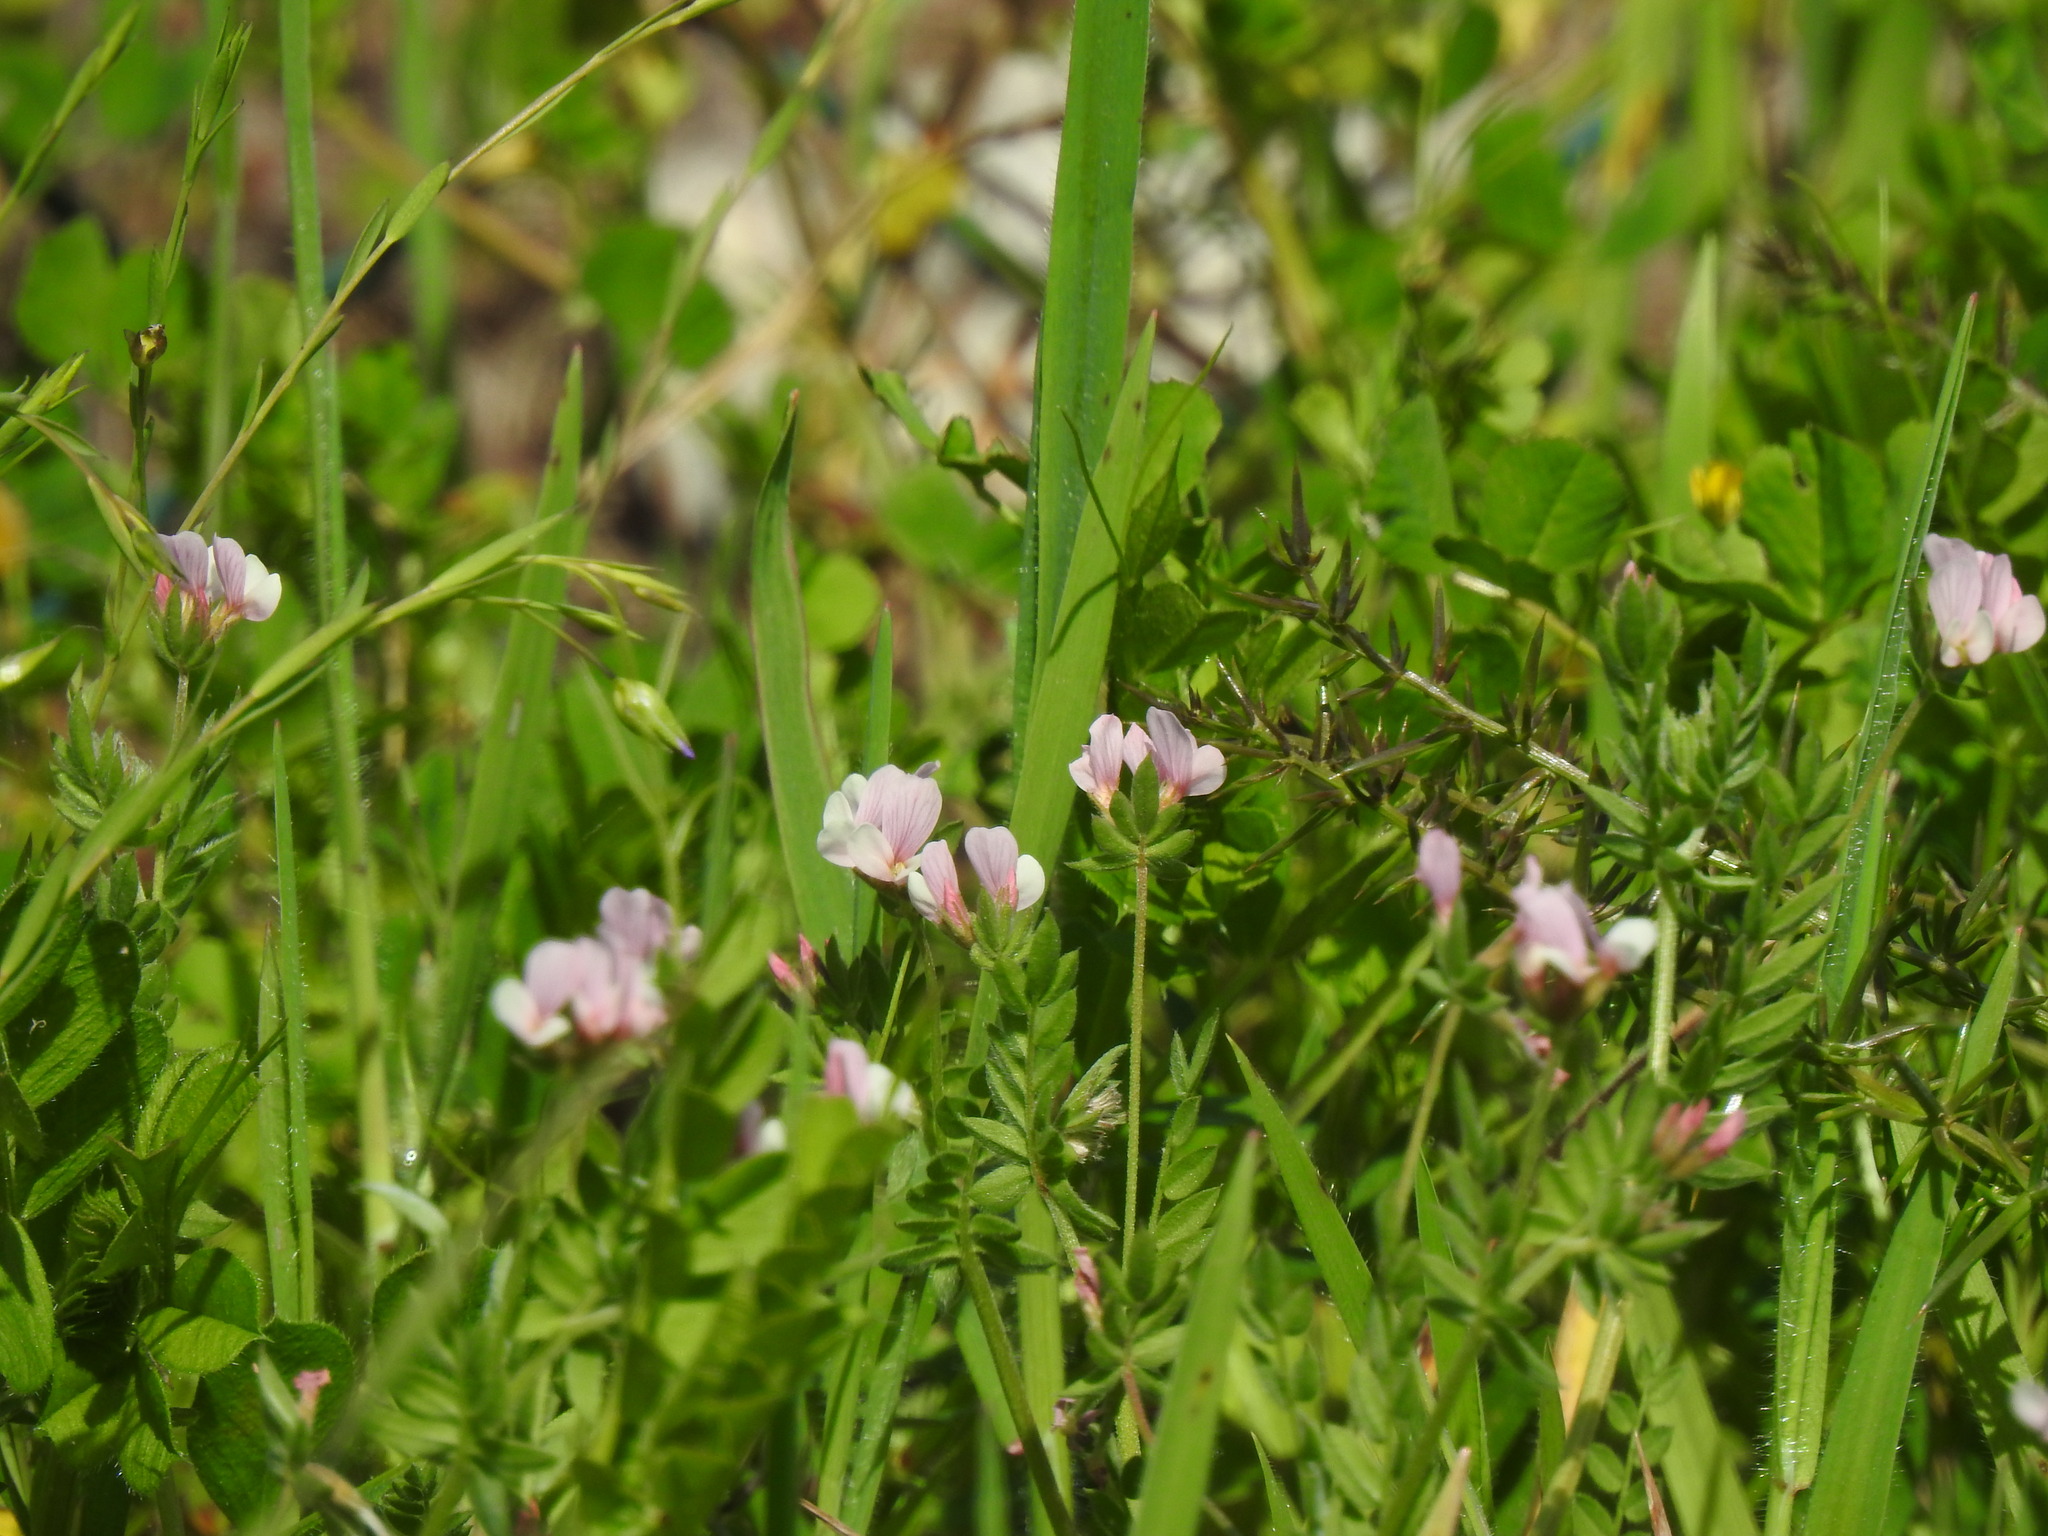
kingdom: Plantae
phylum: Tracheophyta
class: Magnoliopsida
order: Fabales
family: Fabaceae
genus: Ornithopus
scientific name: Ornithopus sativus
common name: Serradella
